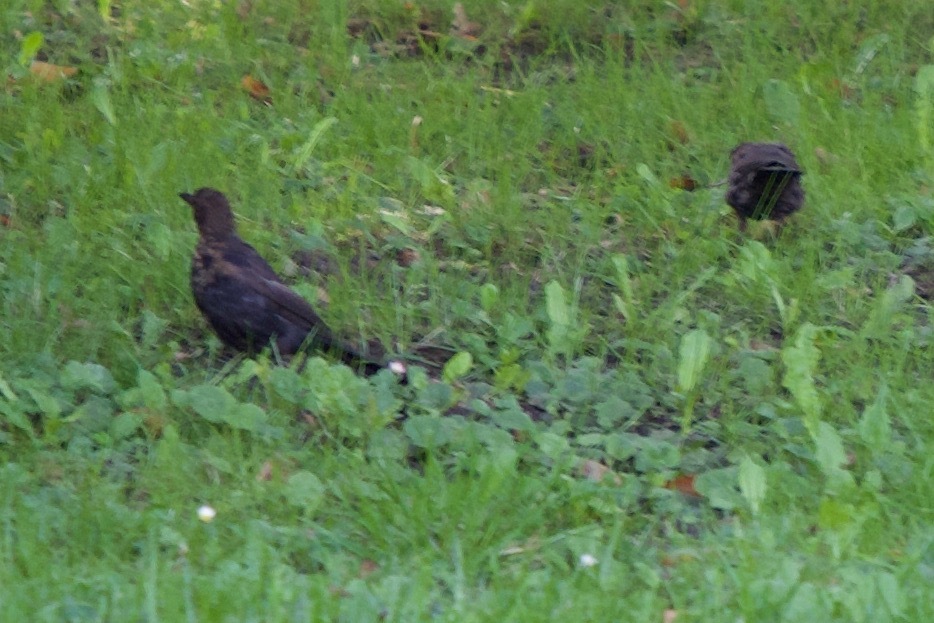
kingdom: Animalia
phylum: Chordata
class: Aves
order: Passeriformes
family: Turdidae
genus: Turdus
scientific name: Turdus merula
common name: Common blackbird
